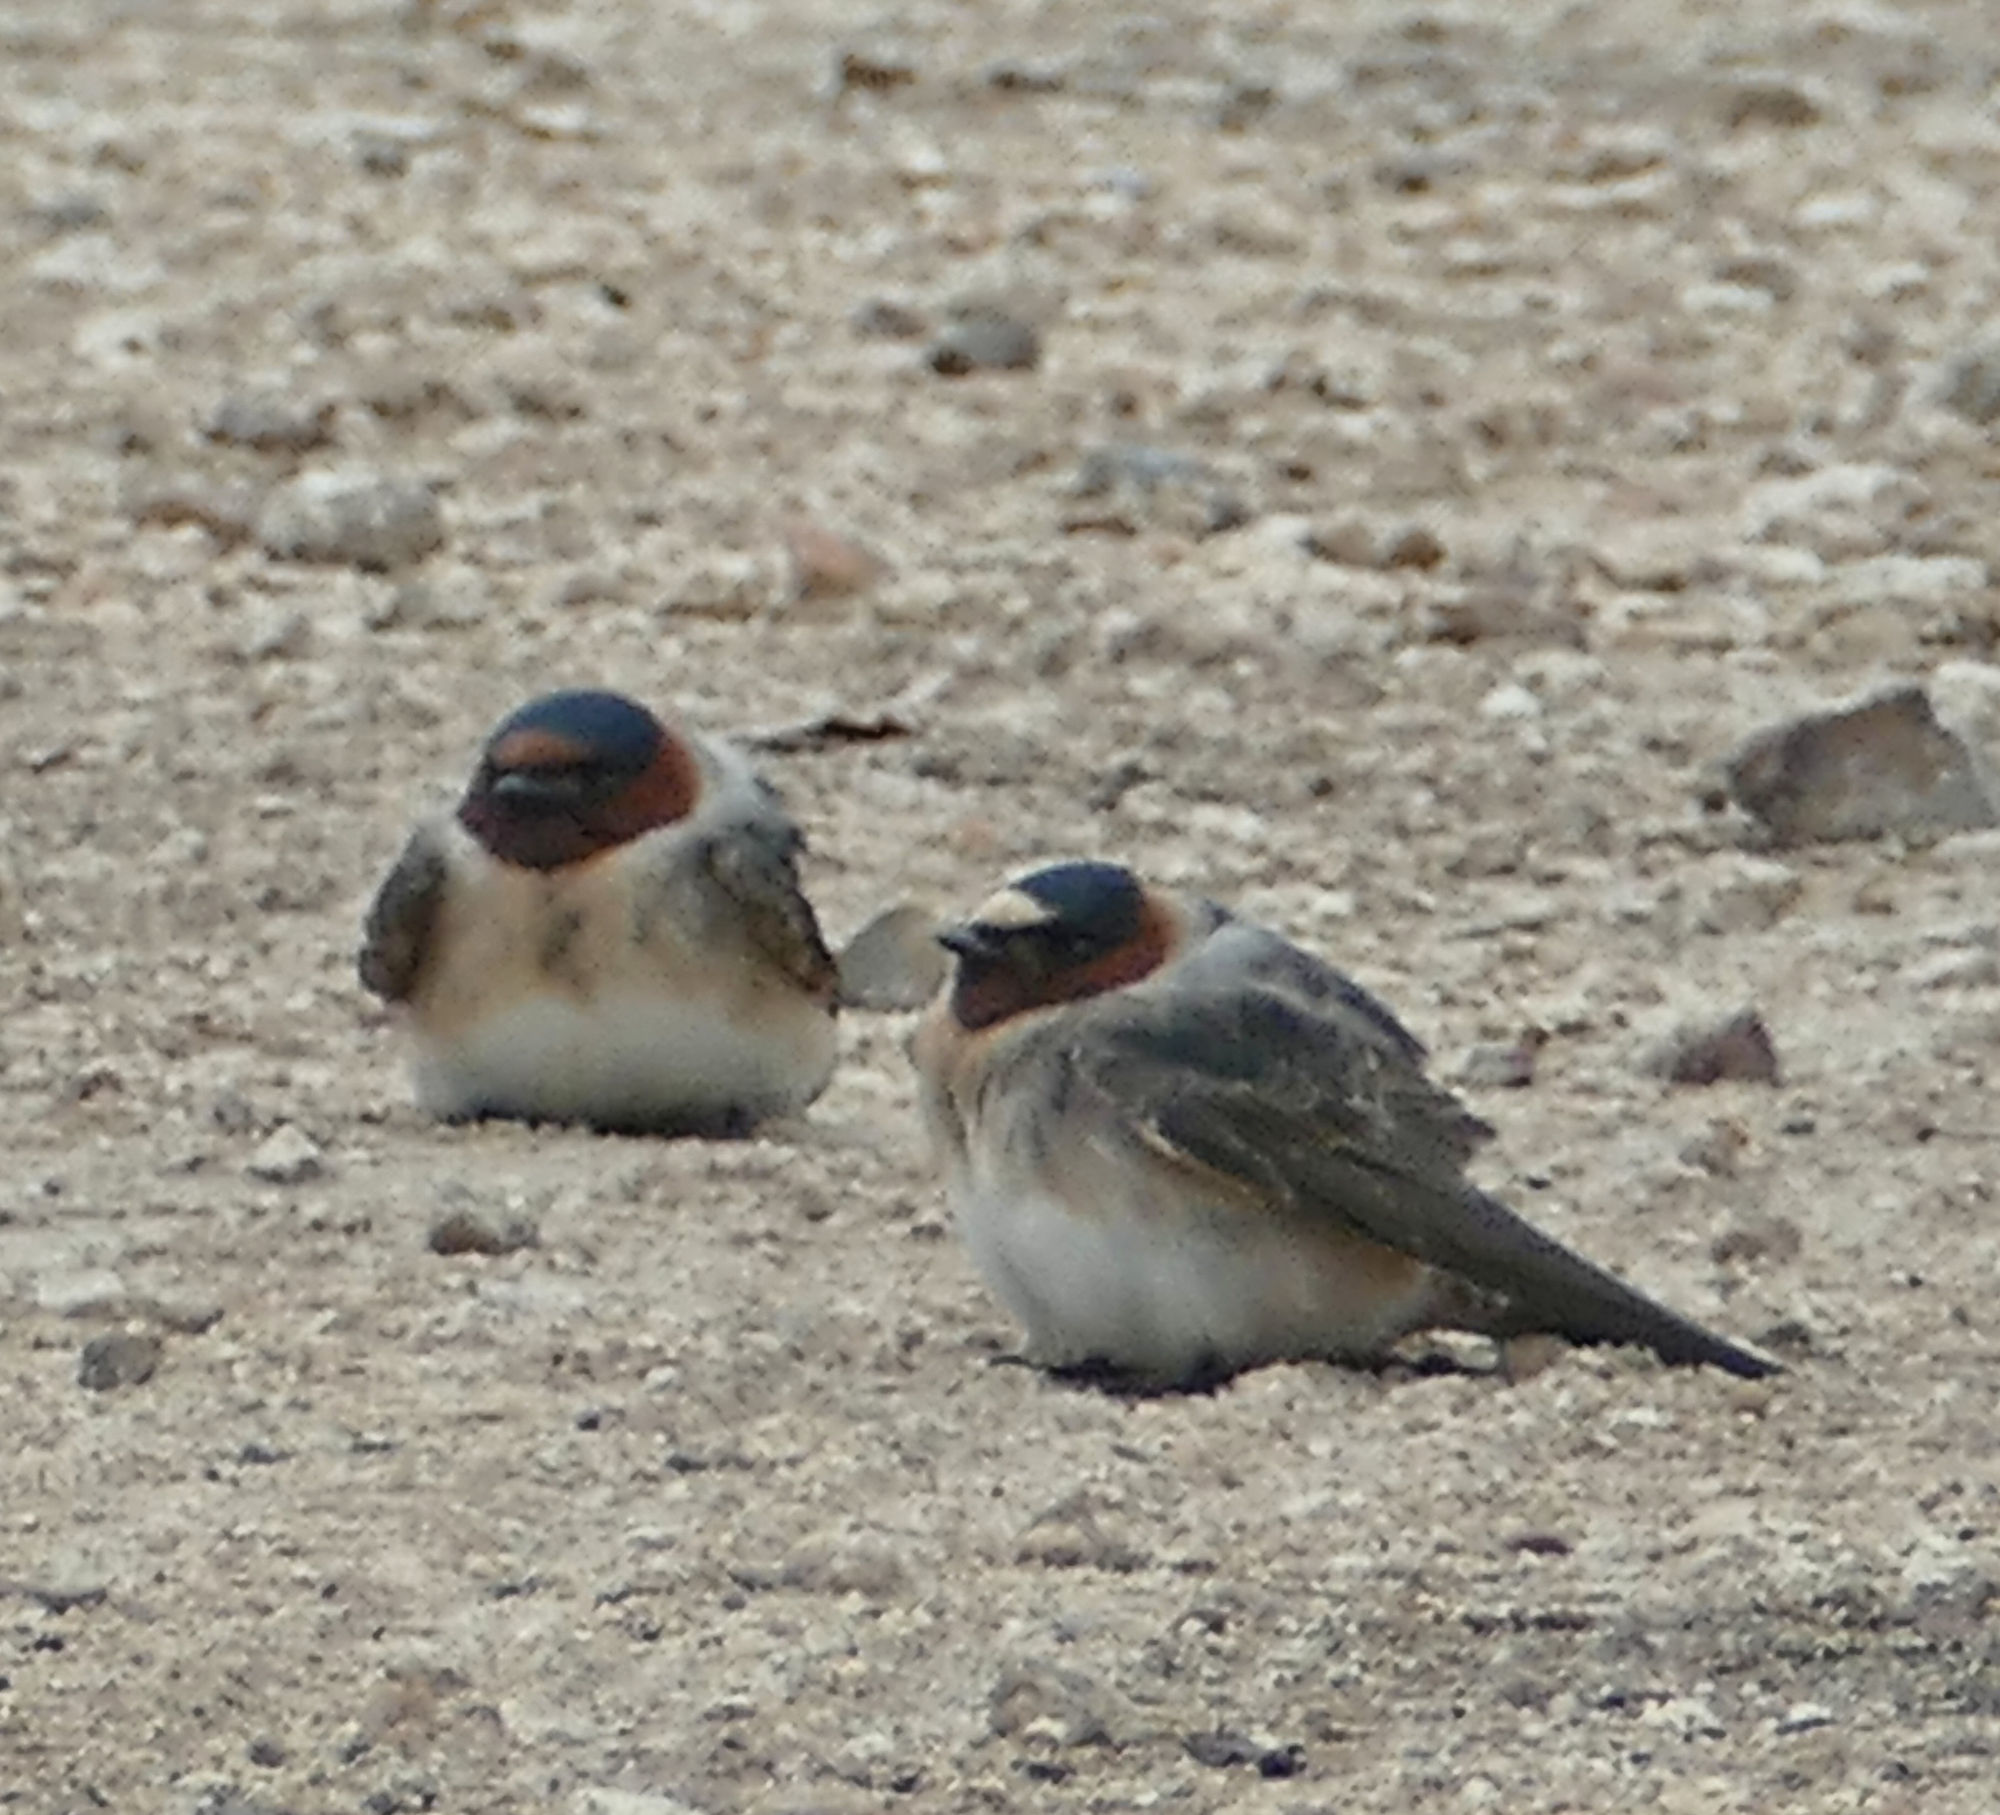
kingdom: Animalia
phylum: Chordata
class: Aves
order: Passeriformes
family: Hirundinidae
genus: Petrochelidon
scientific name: Petrochelidon pyrrhonota
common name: American cliff swallow
